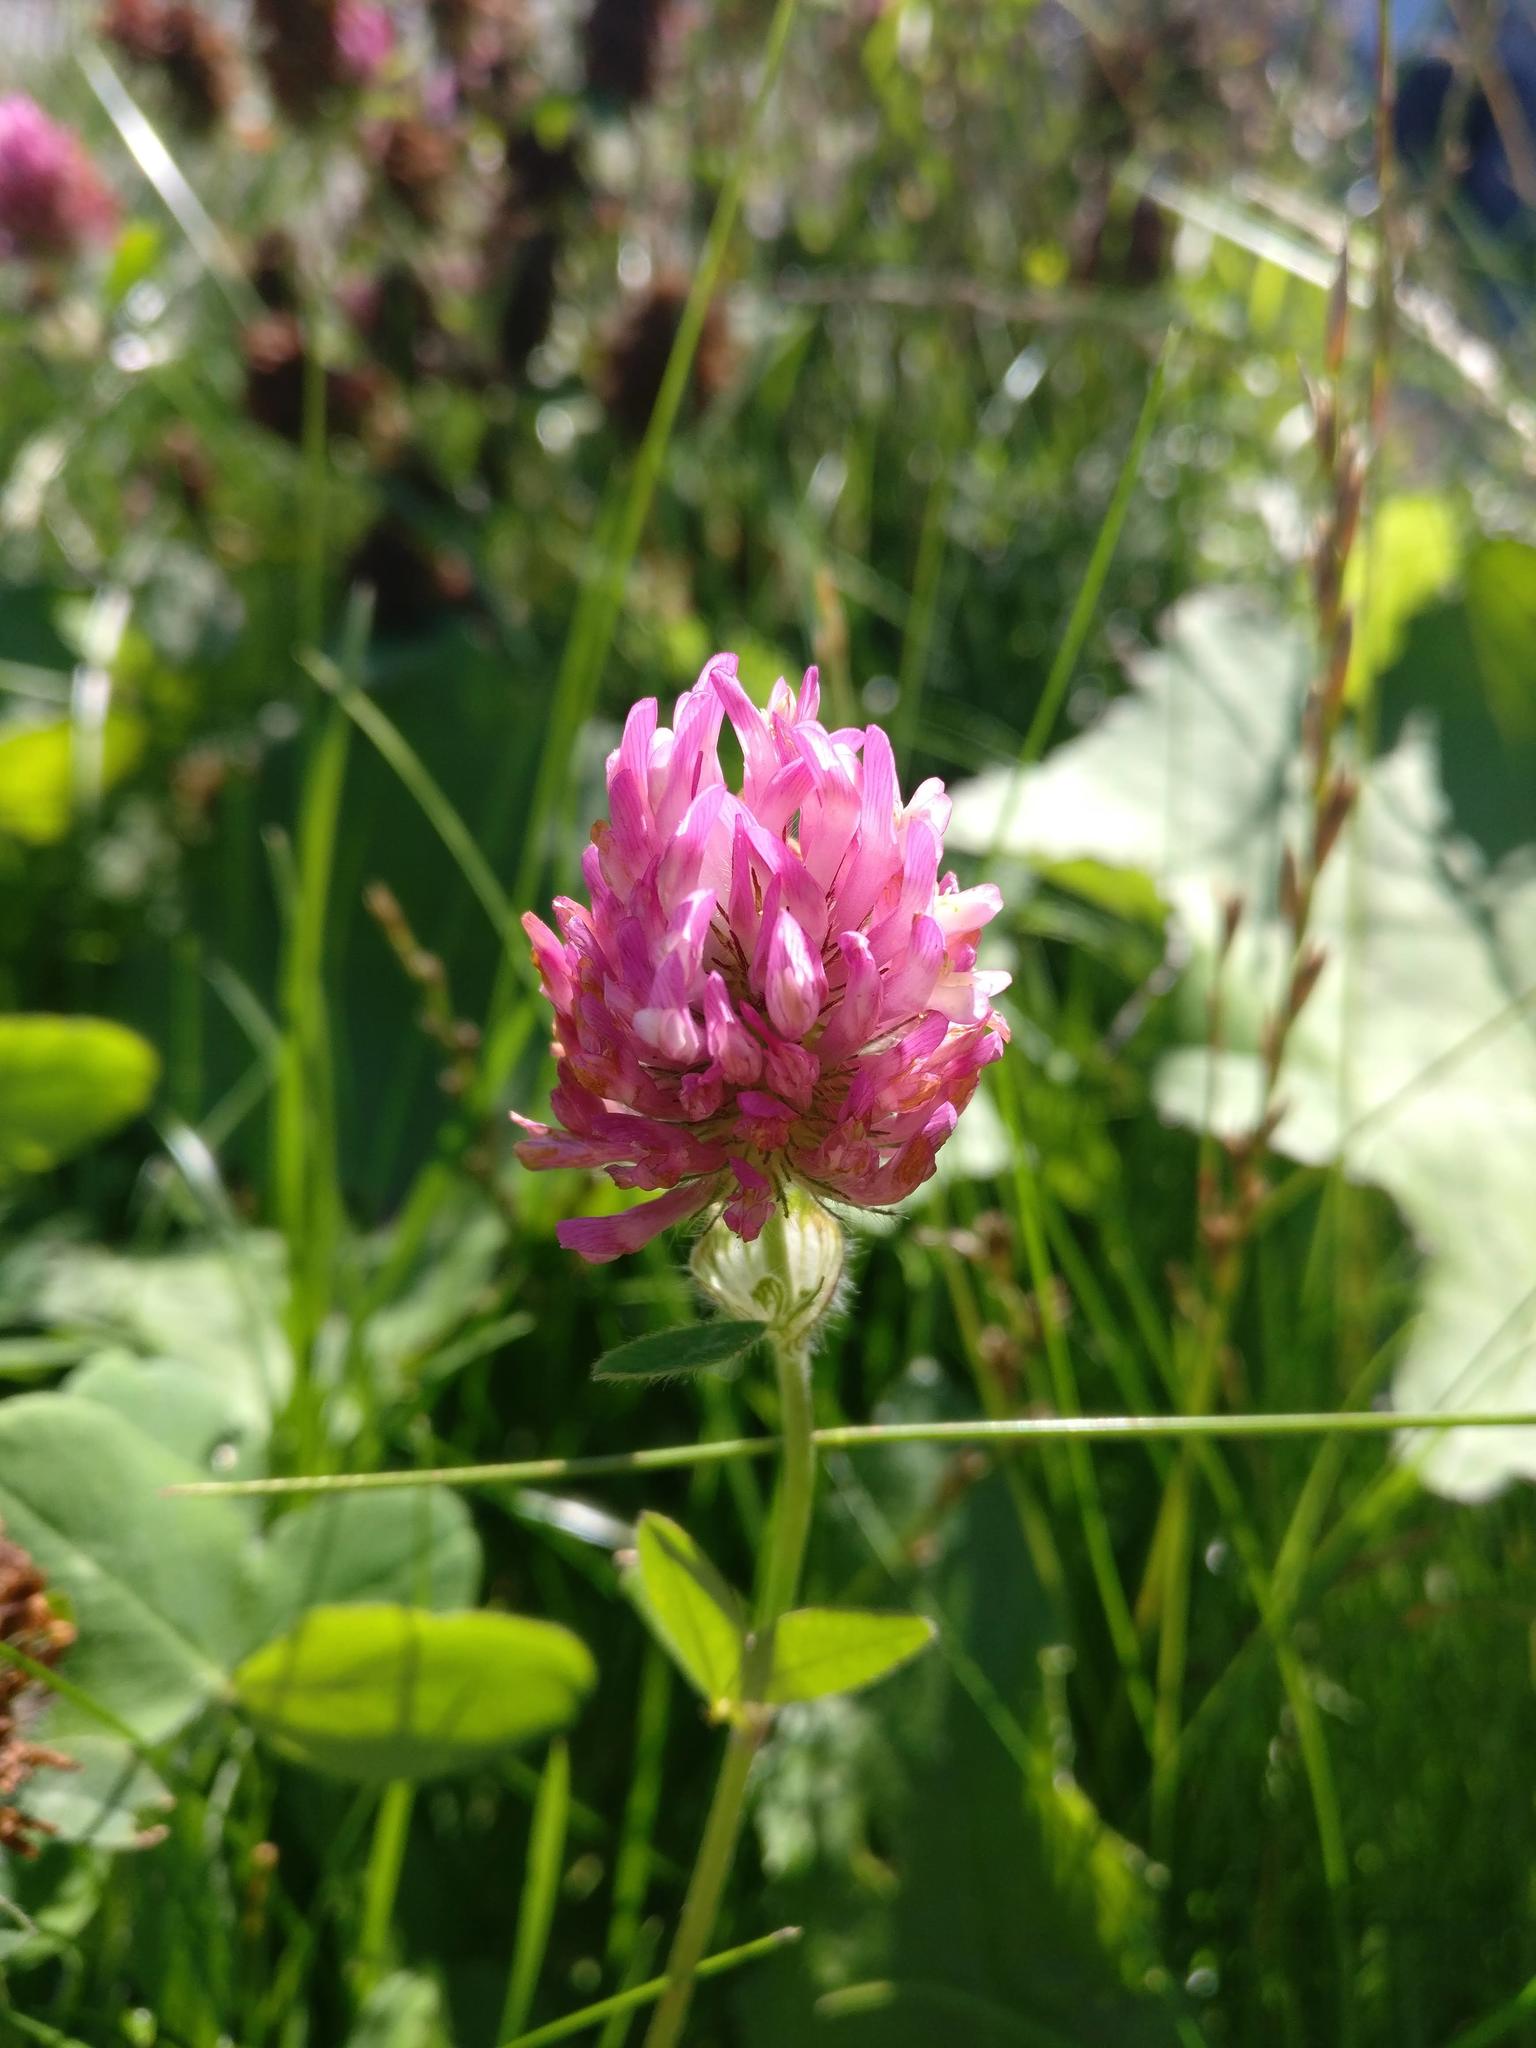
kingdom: Plantae
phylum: Tracheophyta
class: Magnoliopsida
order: Fabales
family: Fabaceae
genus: Trifolium
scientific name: Trifolium pratense
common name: Red clover
